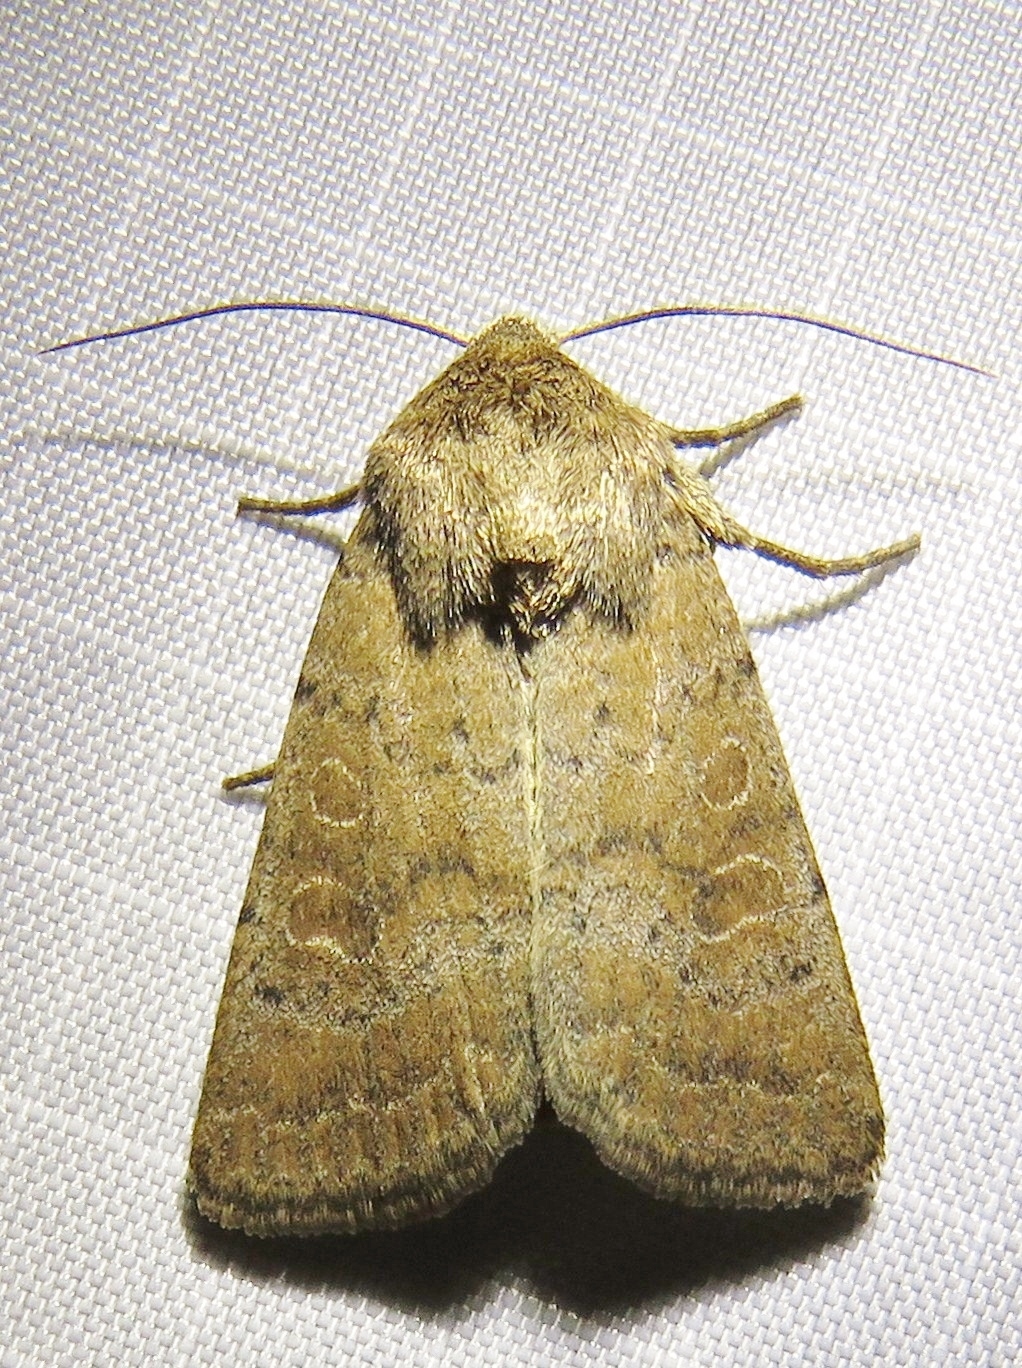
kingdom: Animalia
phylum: Arthropoda
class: Insecta
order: Lepidoptera
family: Noctuidae
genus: Hoplodrina
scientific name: Hoplodrina octogenaria
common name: Uncertain
